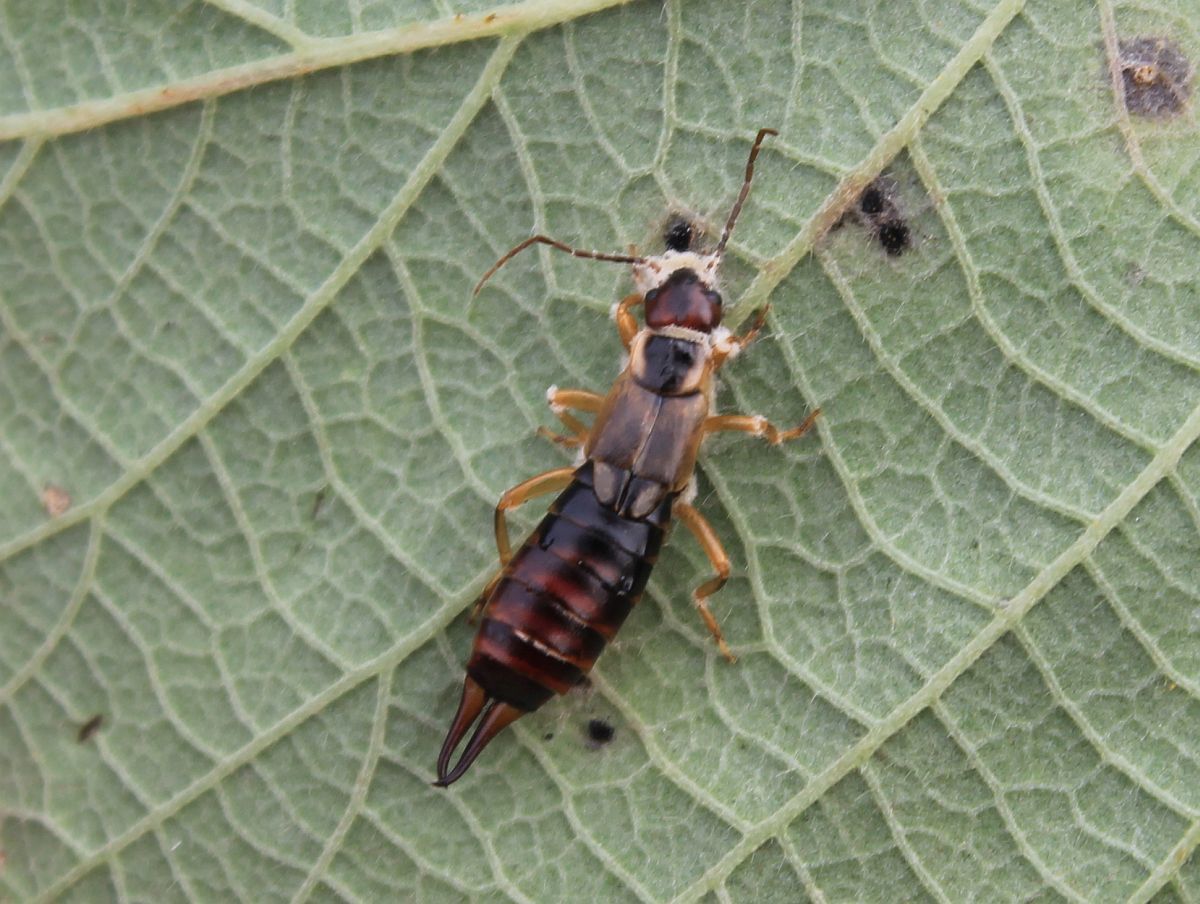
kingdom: Animalia
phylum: Arthropoda
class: Insecta
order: Dermaptera
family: Forficulidae
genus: Forficula
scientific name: Forficula
